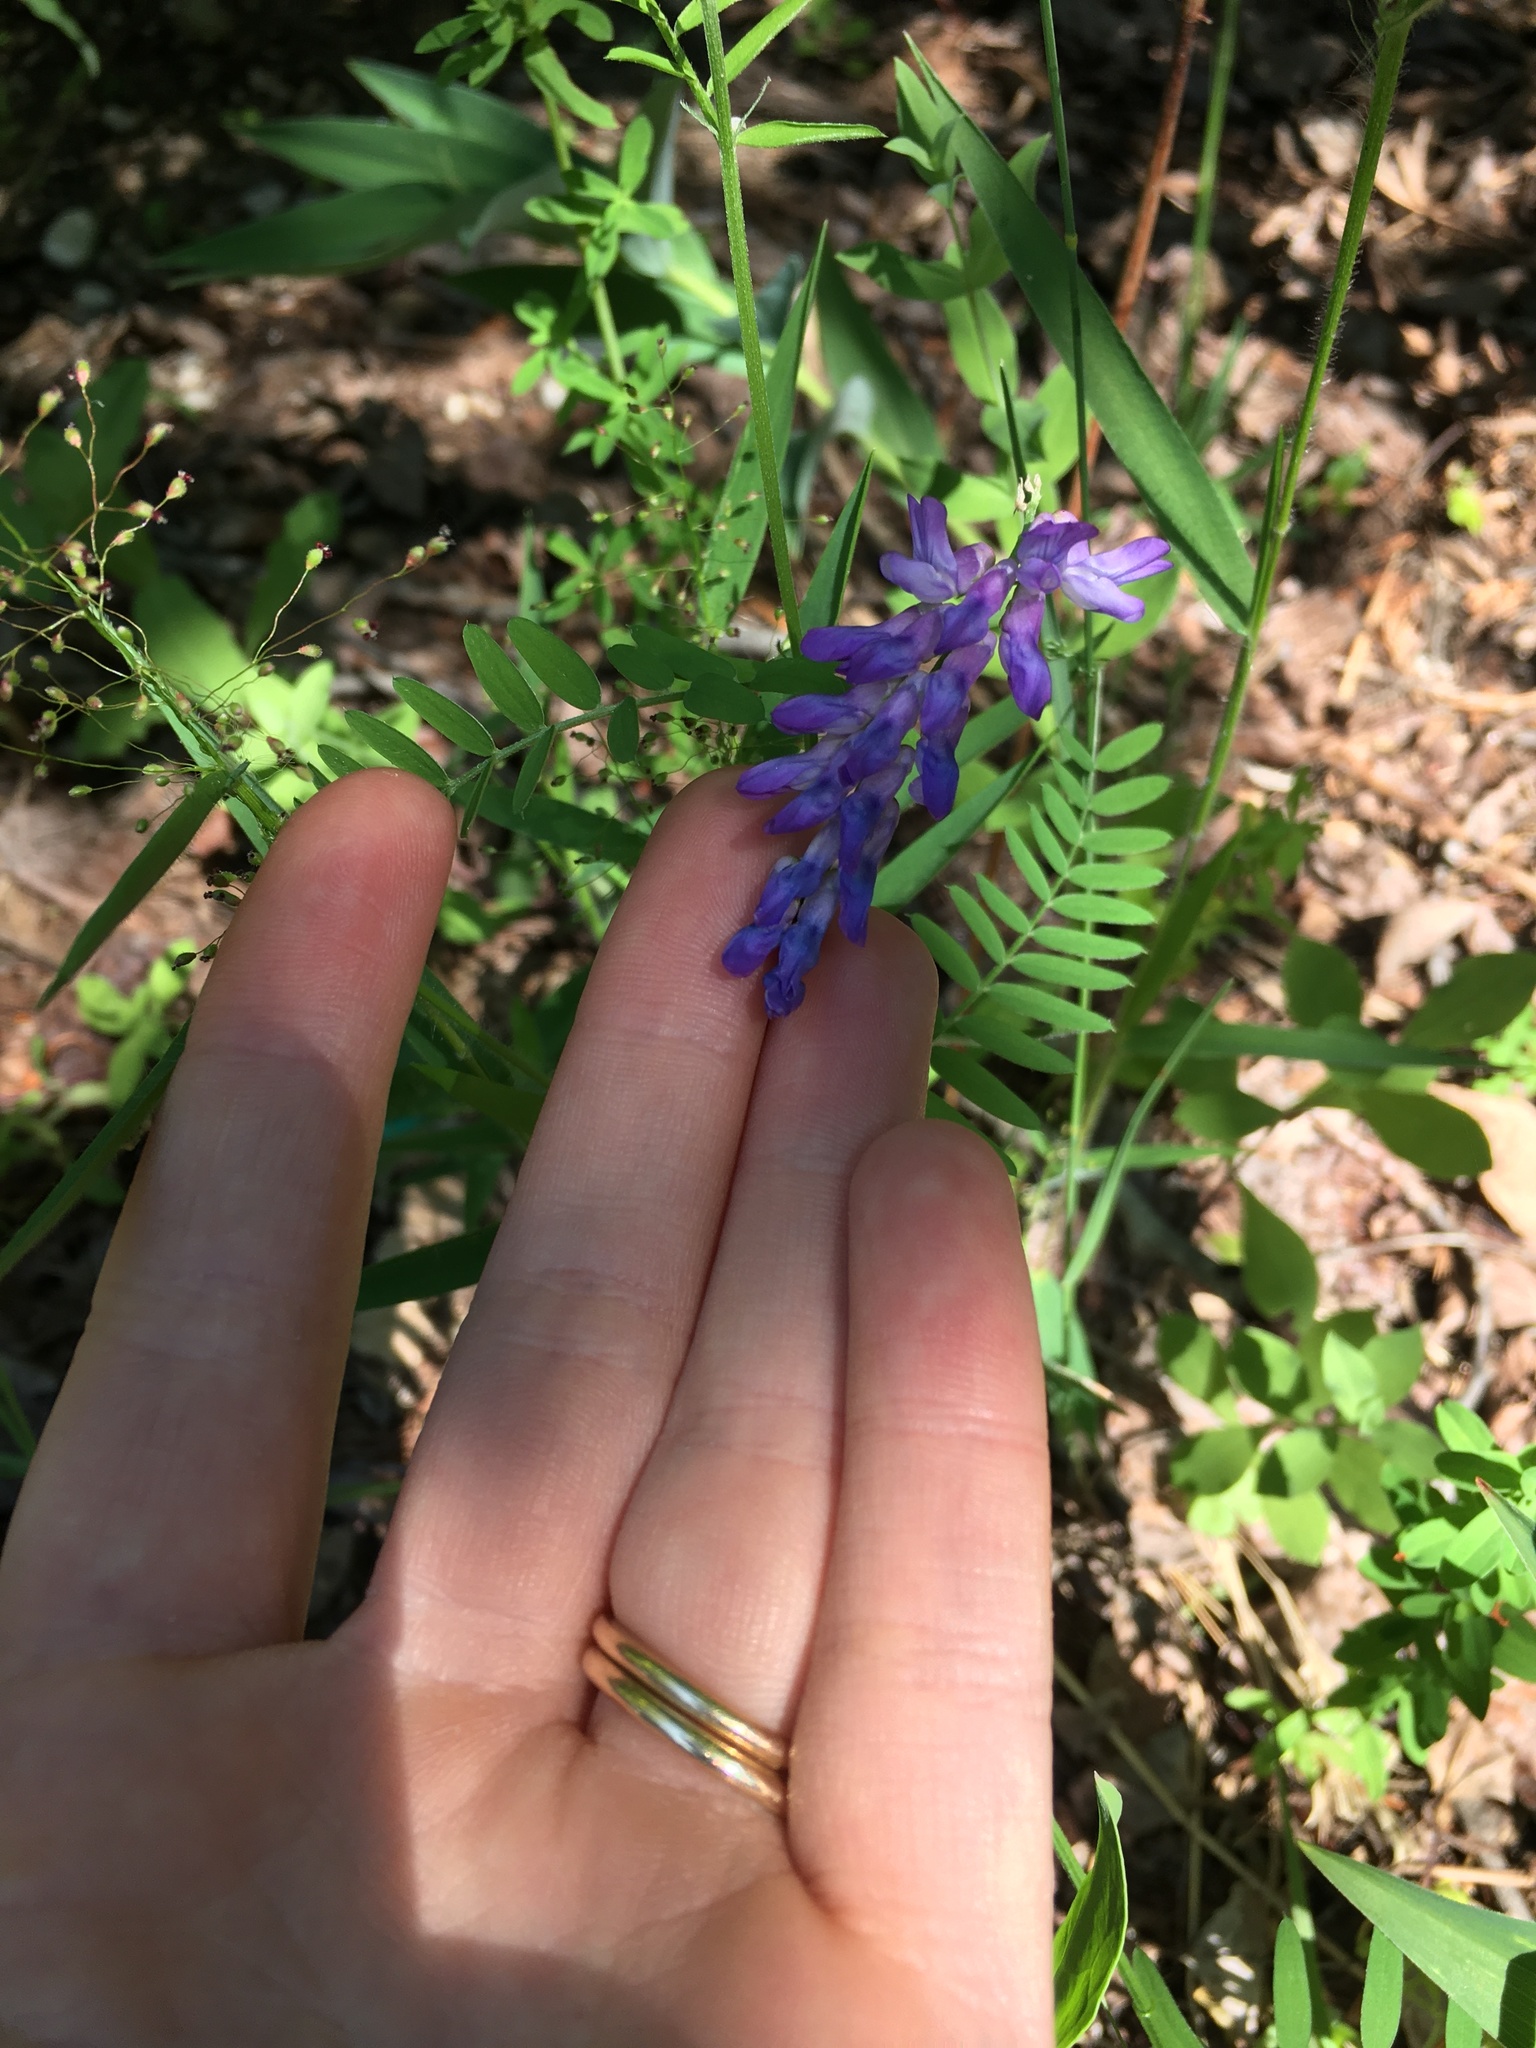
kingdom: Plantae
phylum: Tracheophyta
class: Magnoliopsida
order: Fabales
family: Fabaceae
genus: Vicia
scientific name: Vicia cracca
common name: Bird vetch
